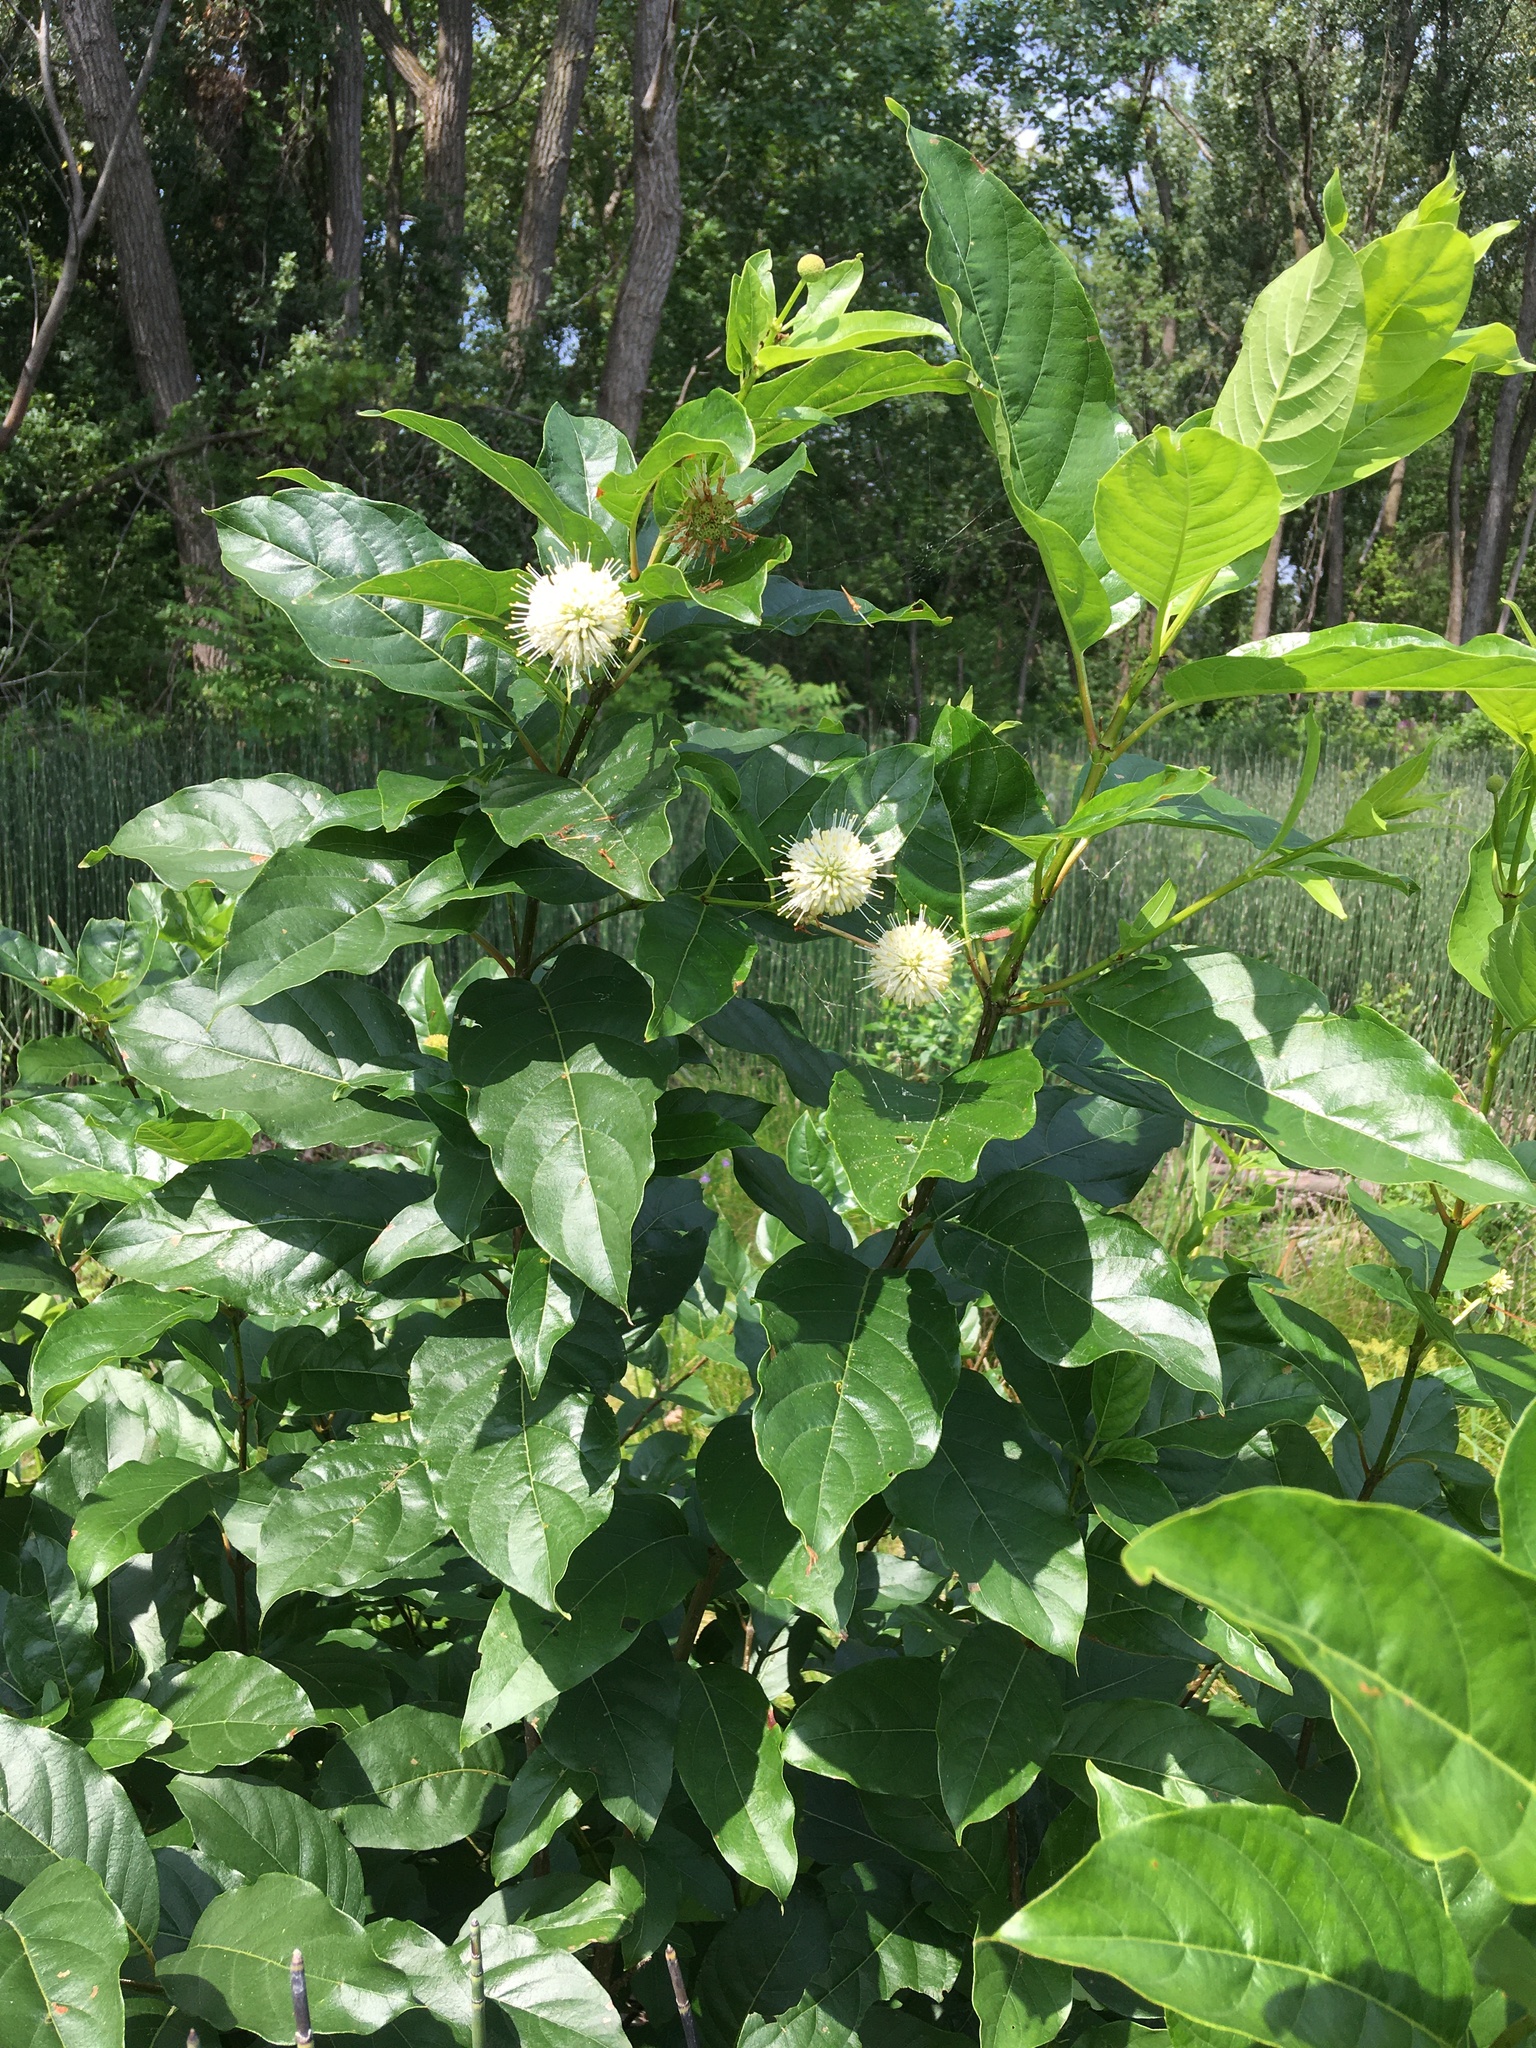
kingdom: Plantae
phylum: Tracheophyta
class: Magnoliopsida
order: Gentianales
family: Rubiaceae
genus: Cephalanthus
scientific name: Cephalanthus occidentalis
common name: Button-willow
